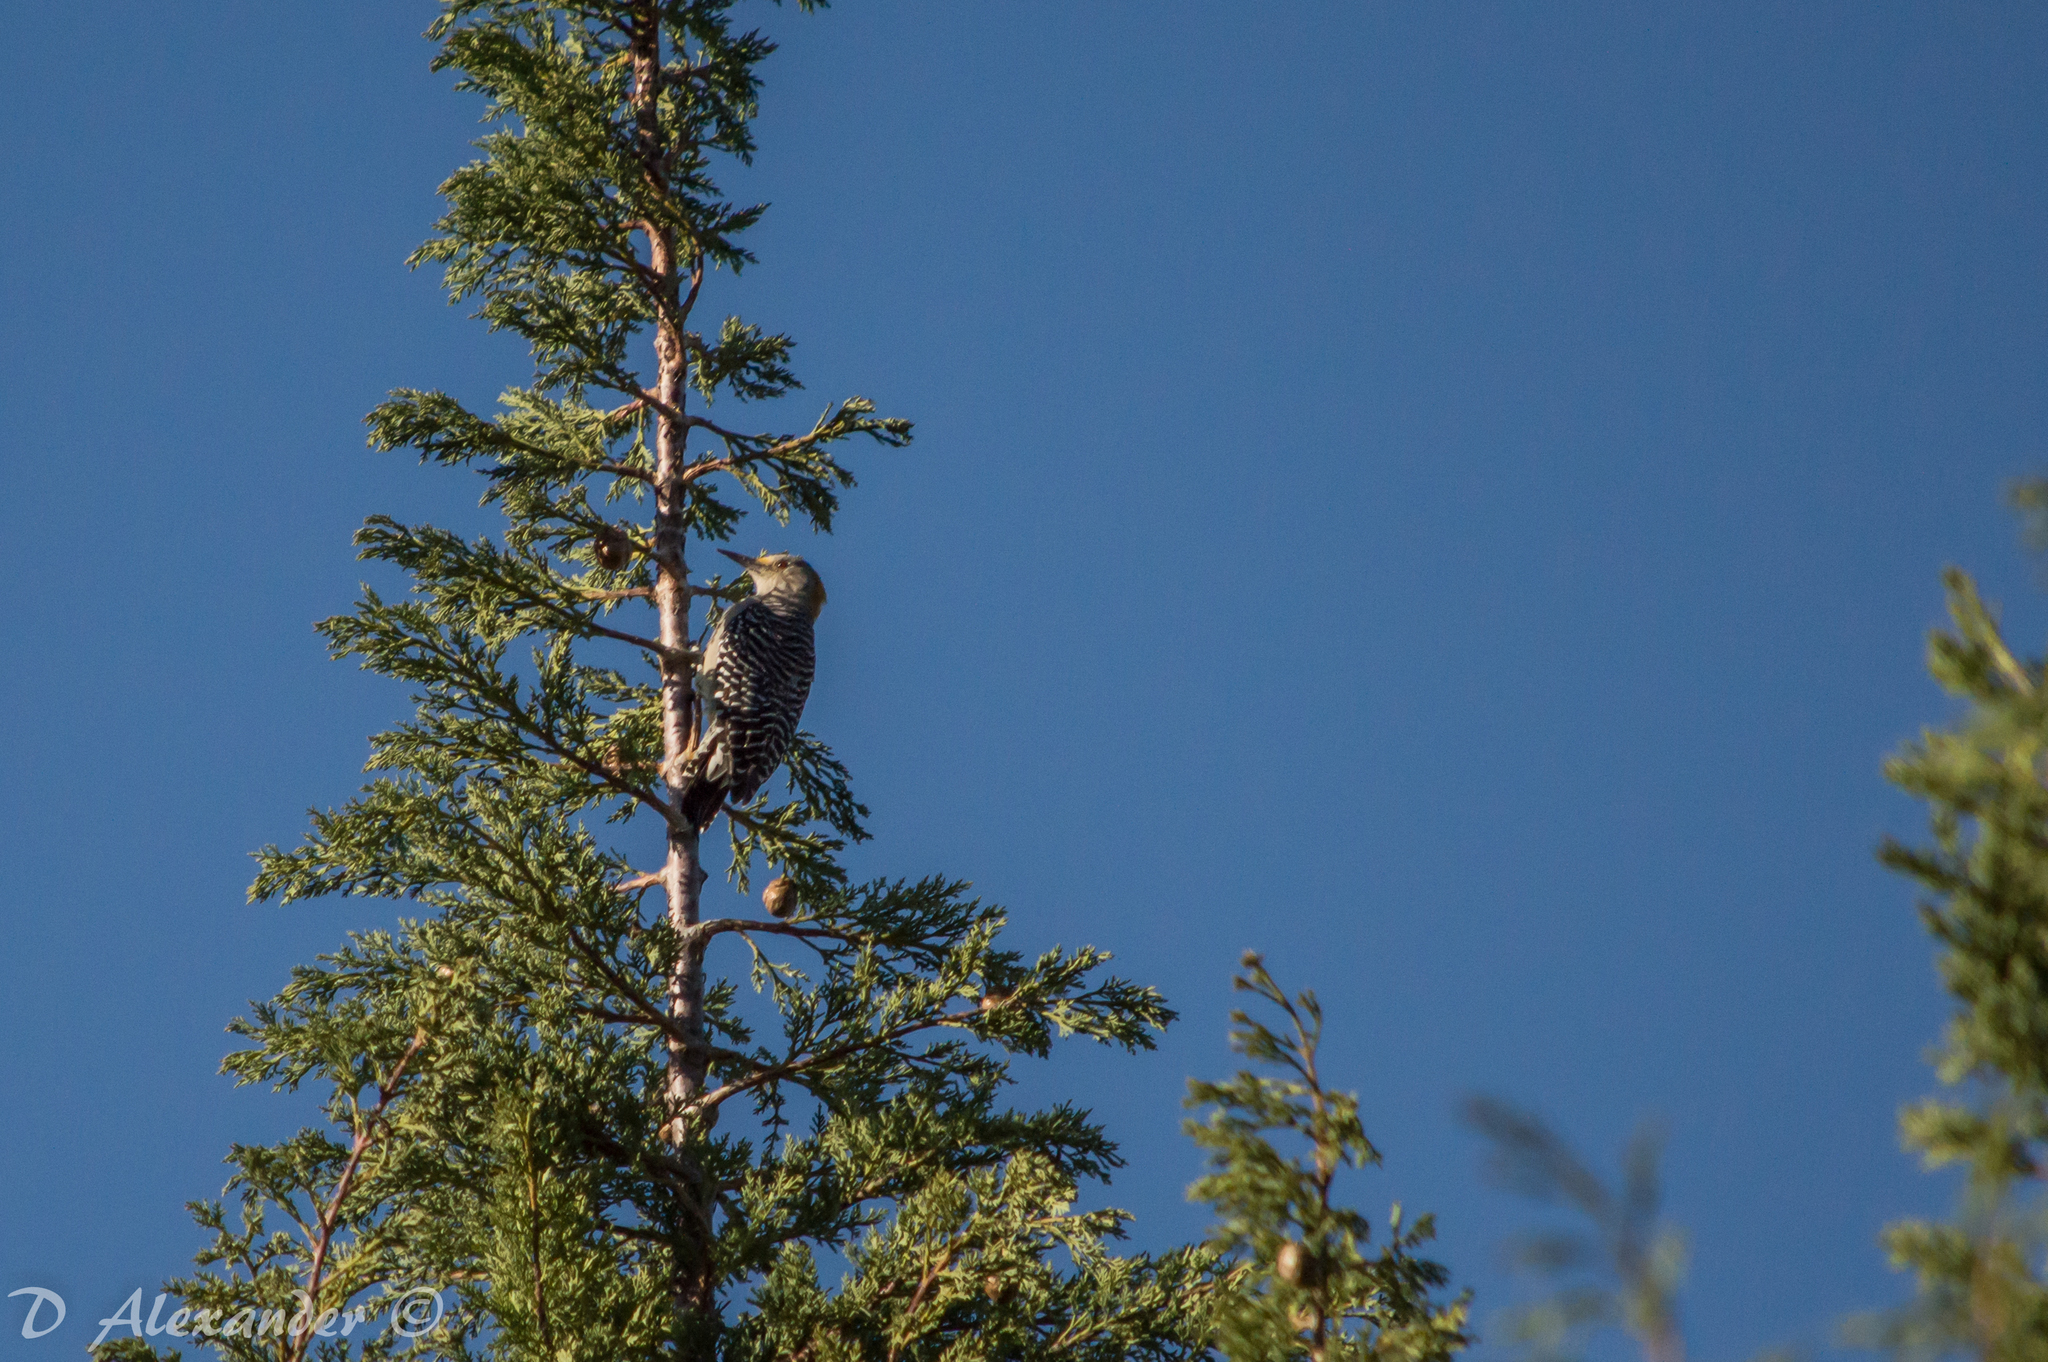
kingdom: Animalia
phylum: Chordata
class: Aves
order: Piciformes
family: Picidae
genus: Melanerpes
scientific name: Melanerpes aurifrons
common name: Golden-fronted woodpecker
